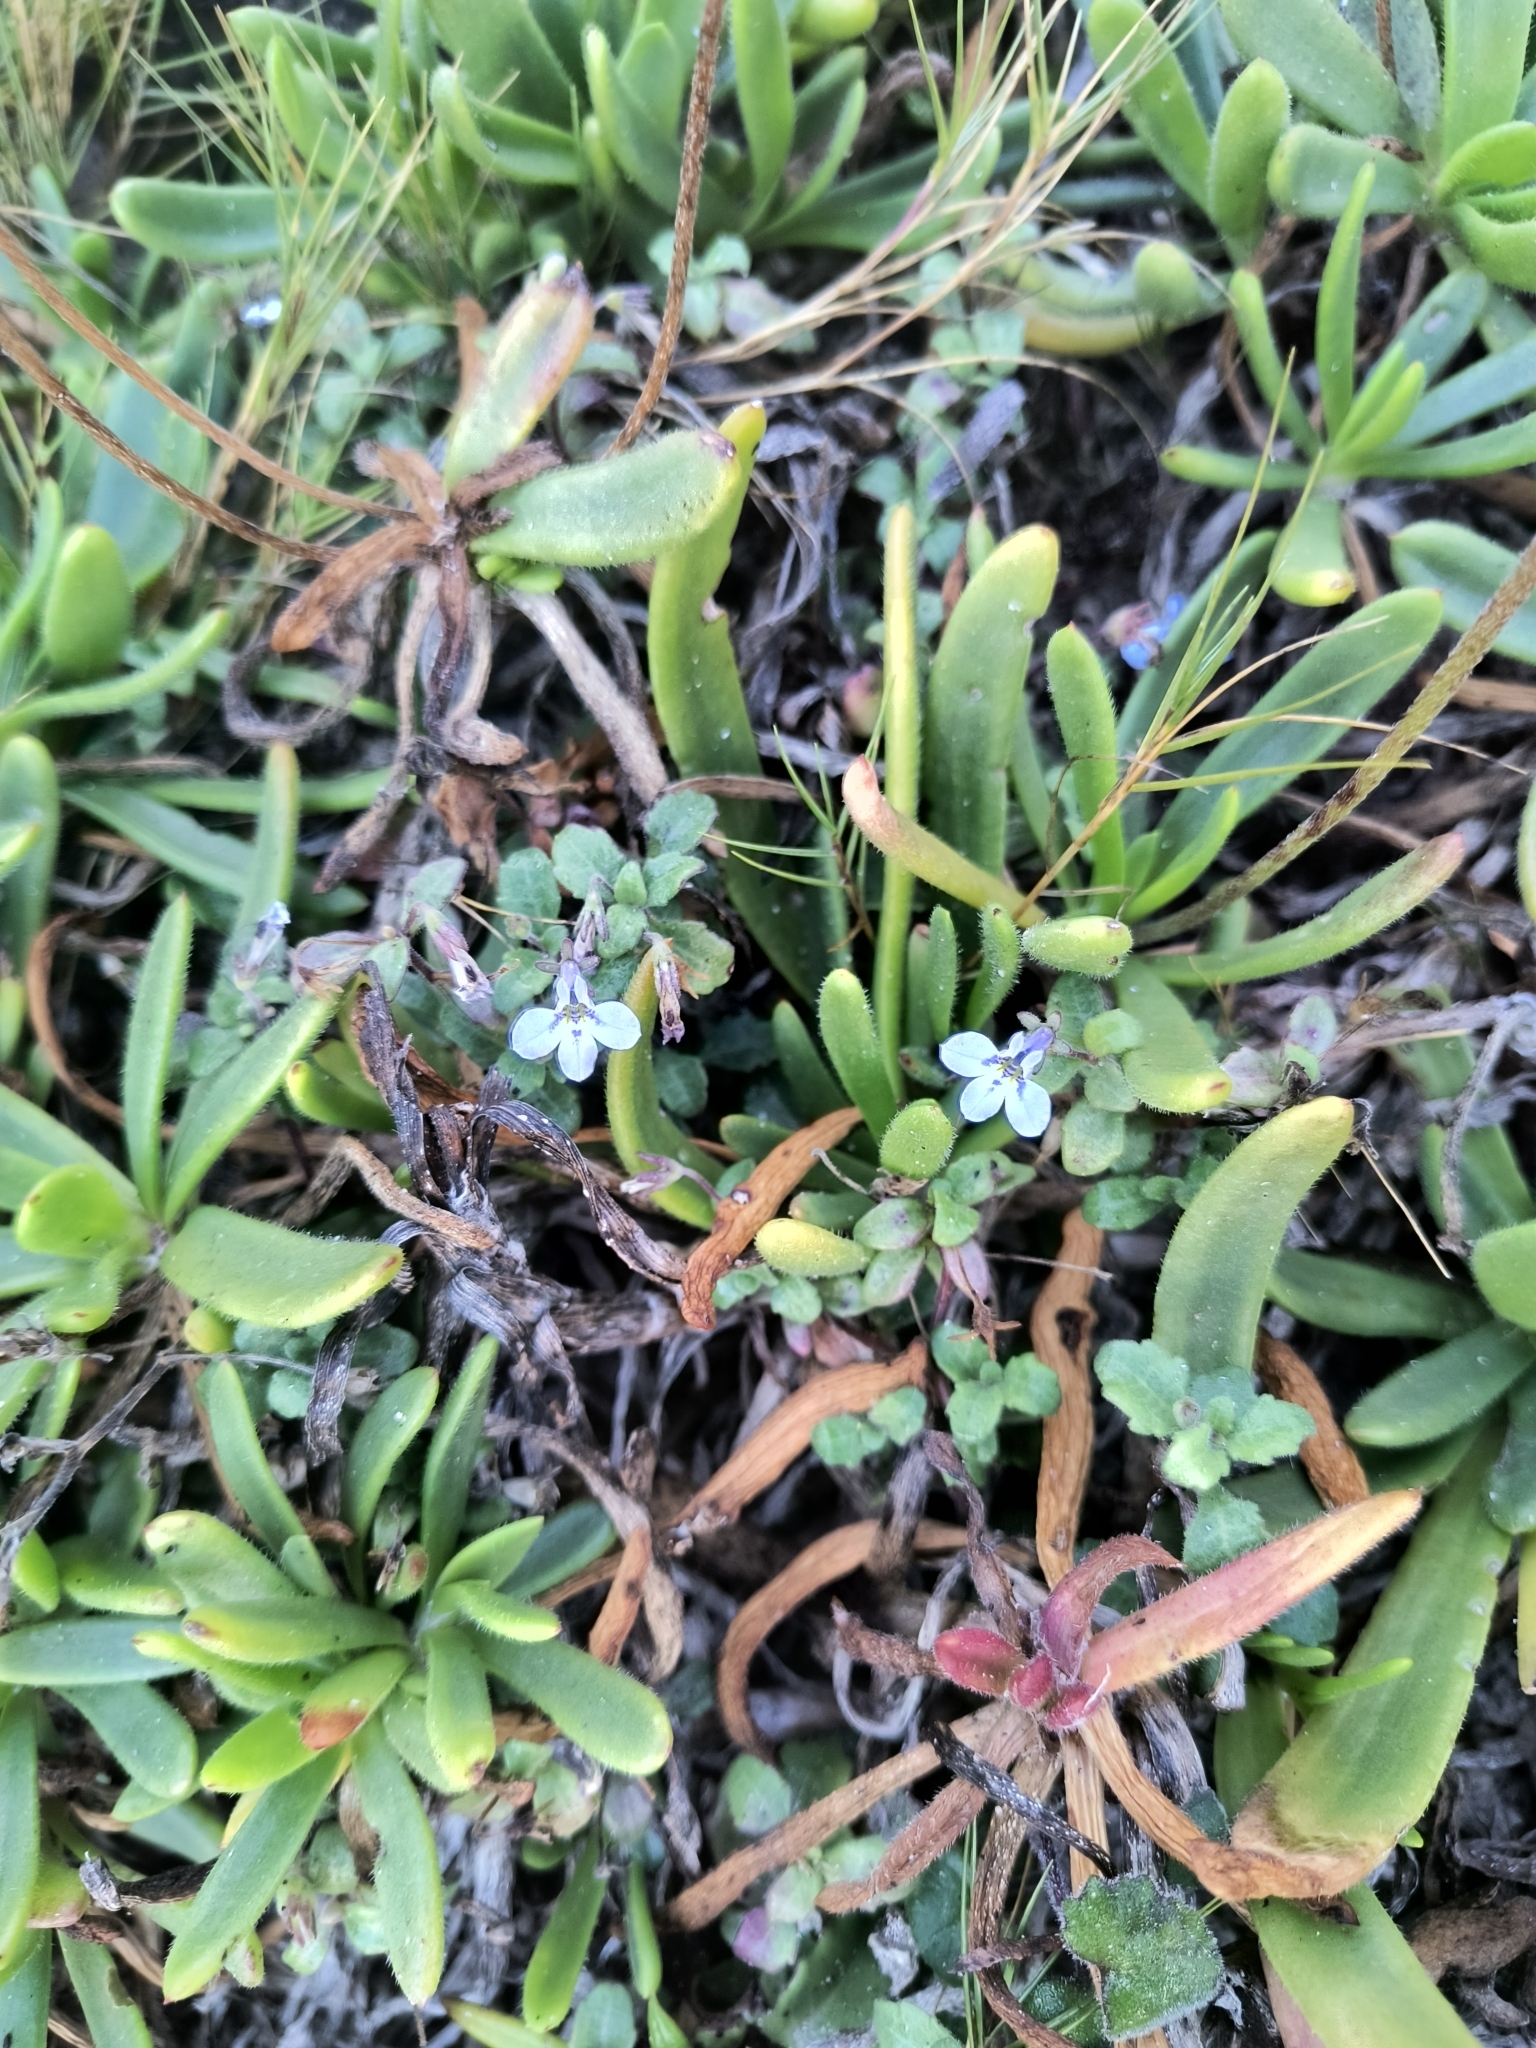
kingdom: Plantae
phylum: Tracheophyta
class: Magnoliopsida
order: Asterales
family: Campanulaceae
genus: Lobelia
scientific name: Lobelia boivinii
